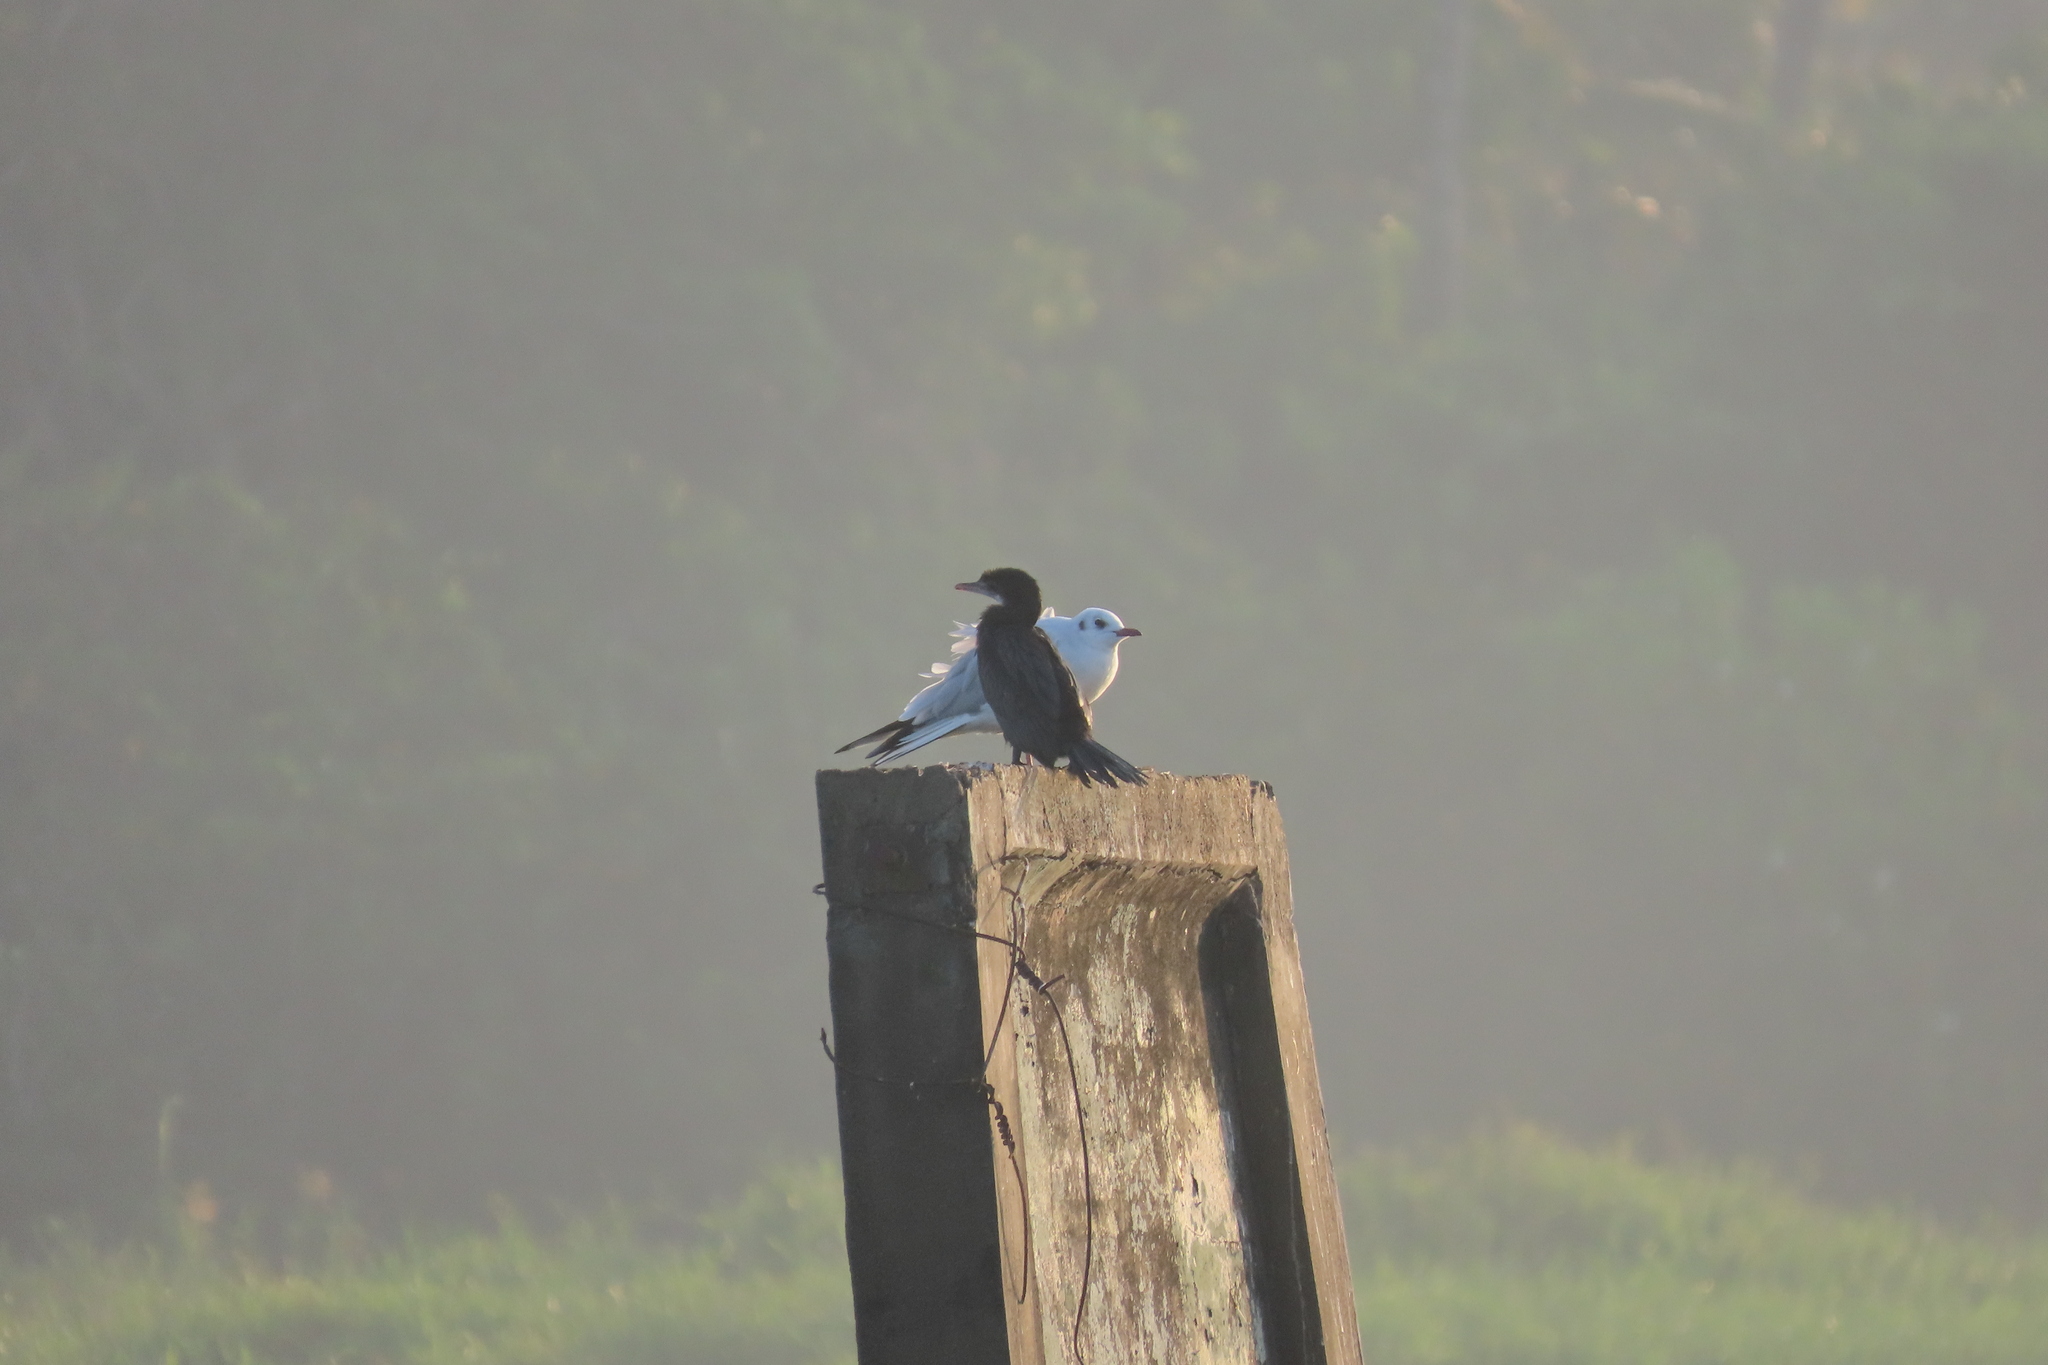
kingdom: Animalia
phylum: Chordata
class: Aves
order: Charadriiformes
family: Laridae
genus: Chroicocephalus
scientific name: Chroicocephalus ridibundus
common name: Black-headed gull
